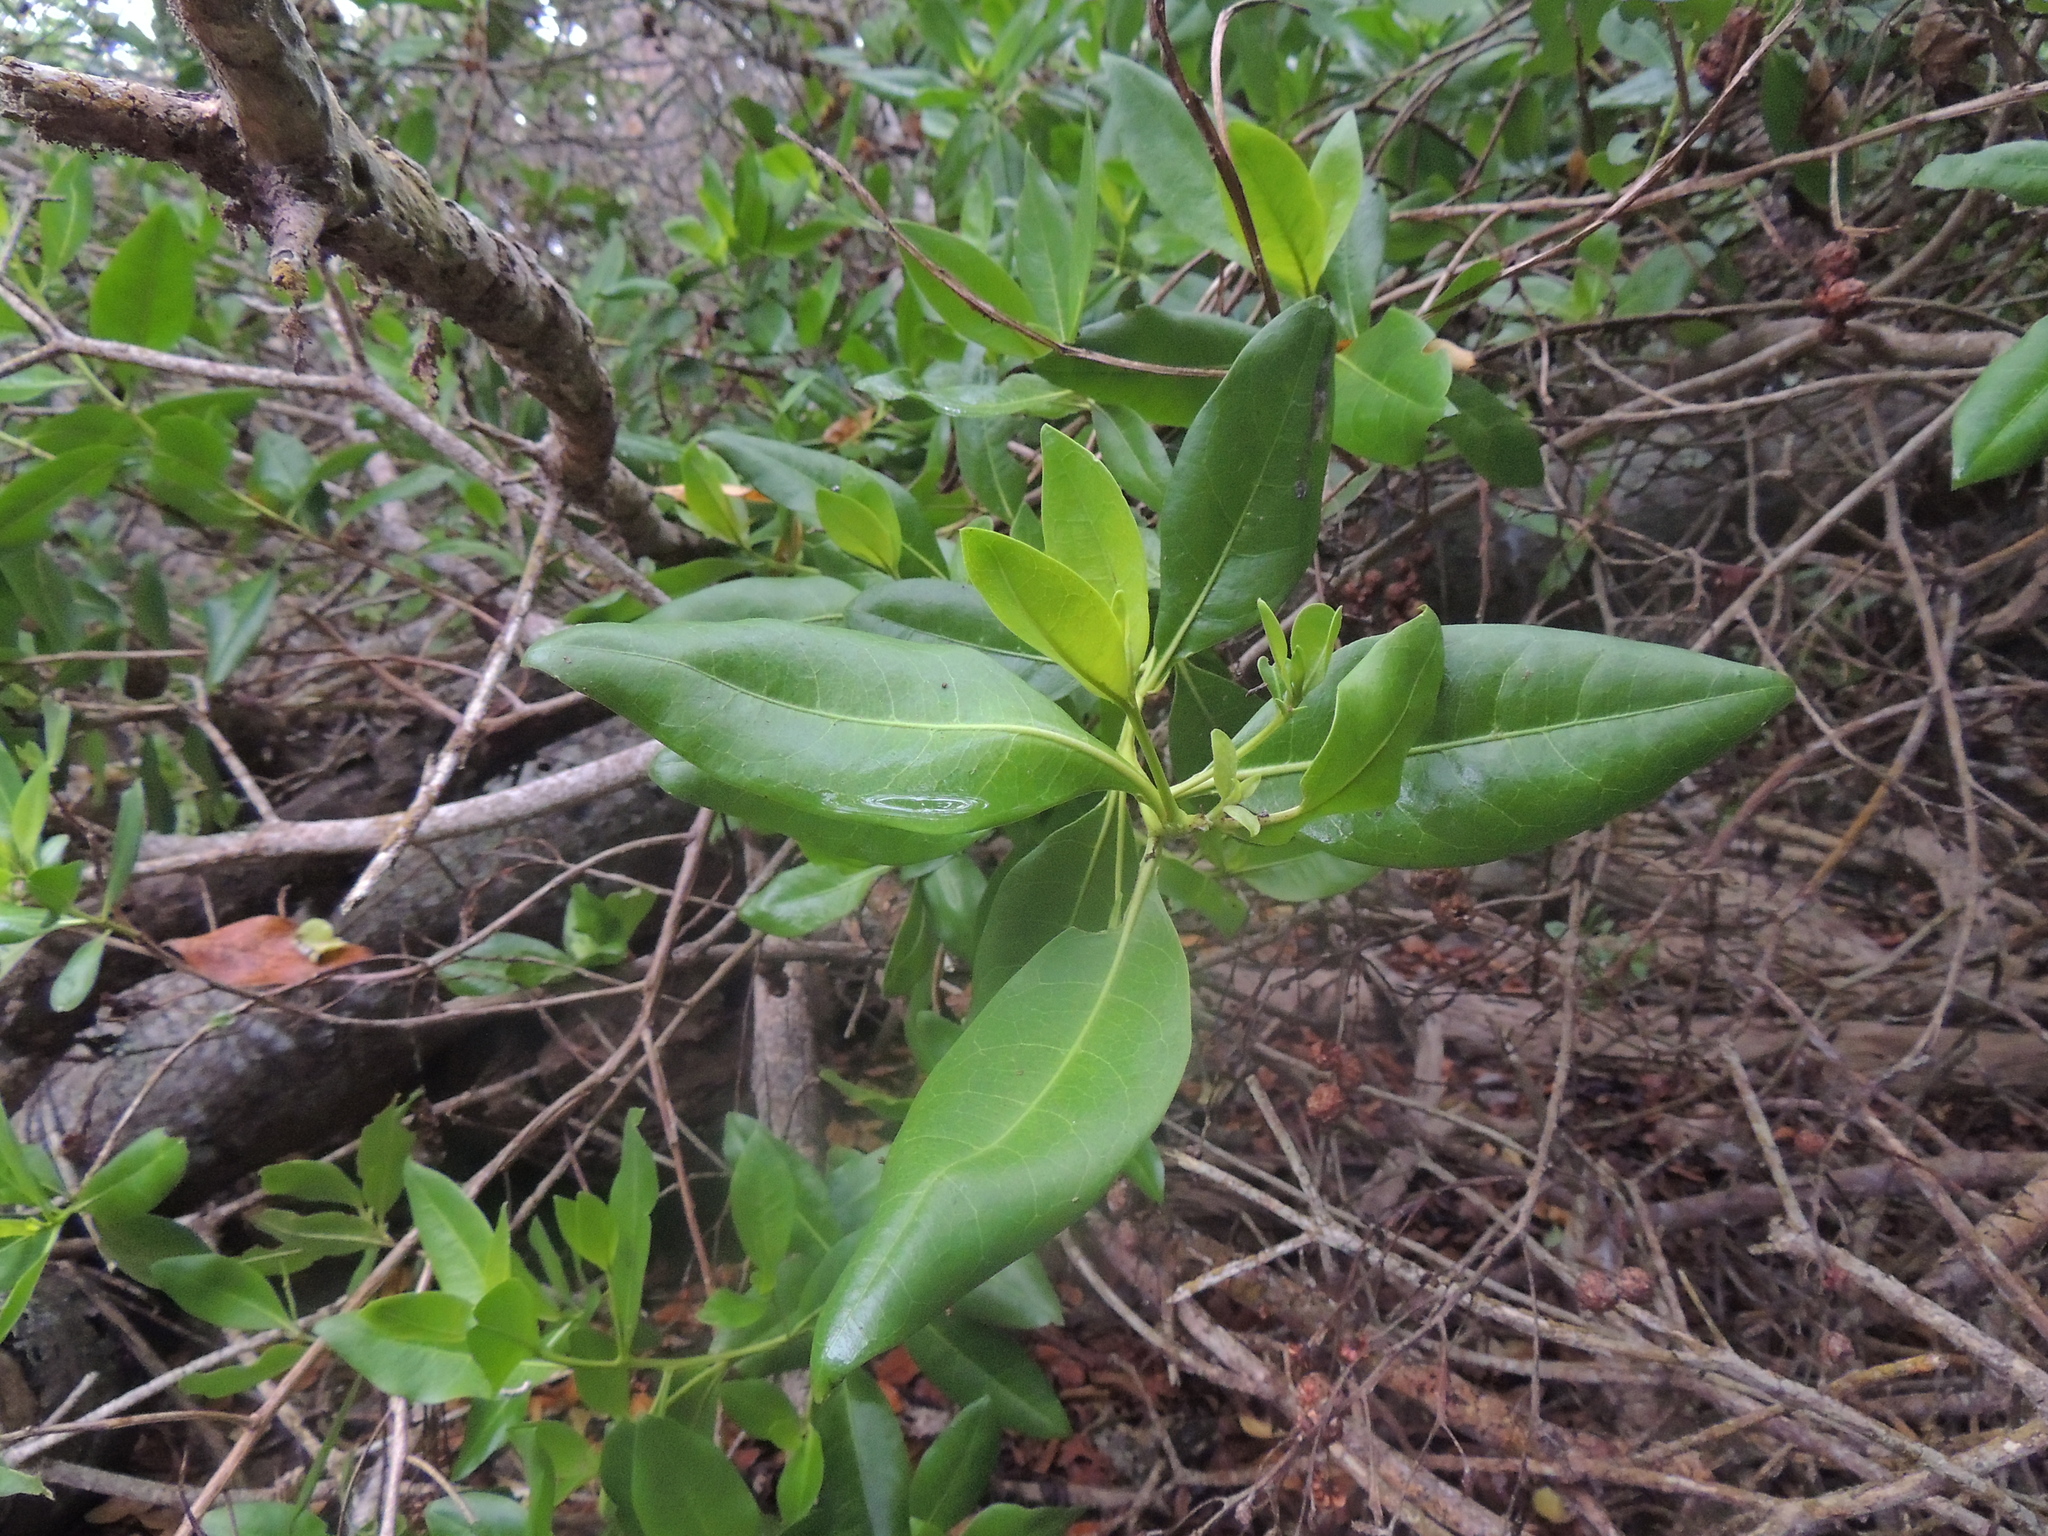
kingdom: Plantae
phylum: Tracheophyta
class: Magnoliopsida
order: Myrtales
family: Combretaceae
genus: Conocarpus
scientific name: Conocarpus erectus
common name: Button mangrove
